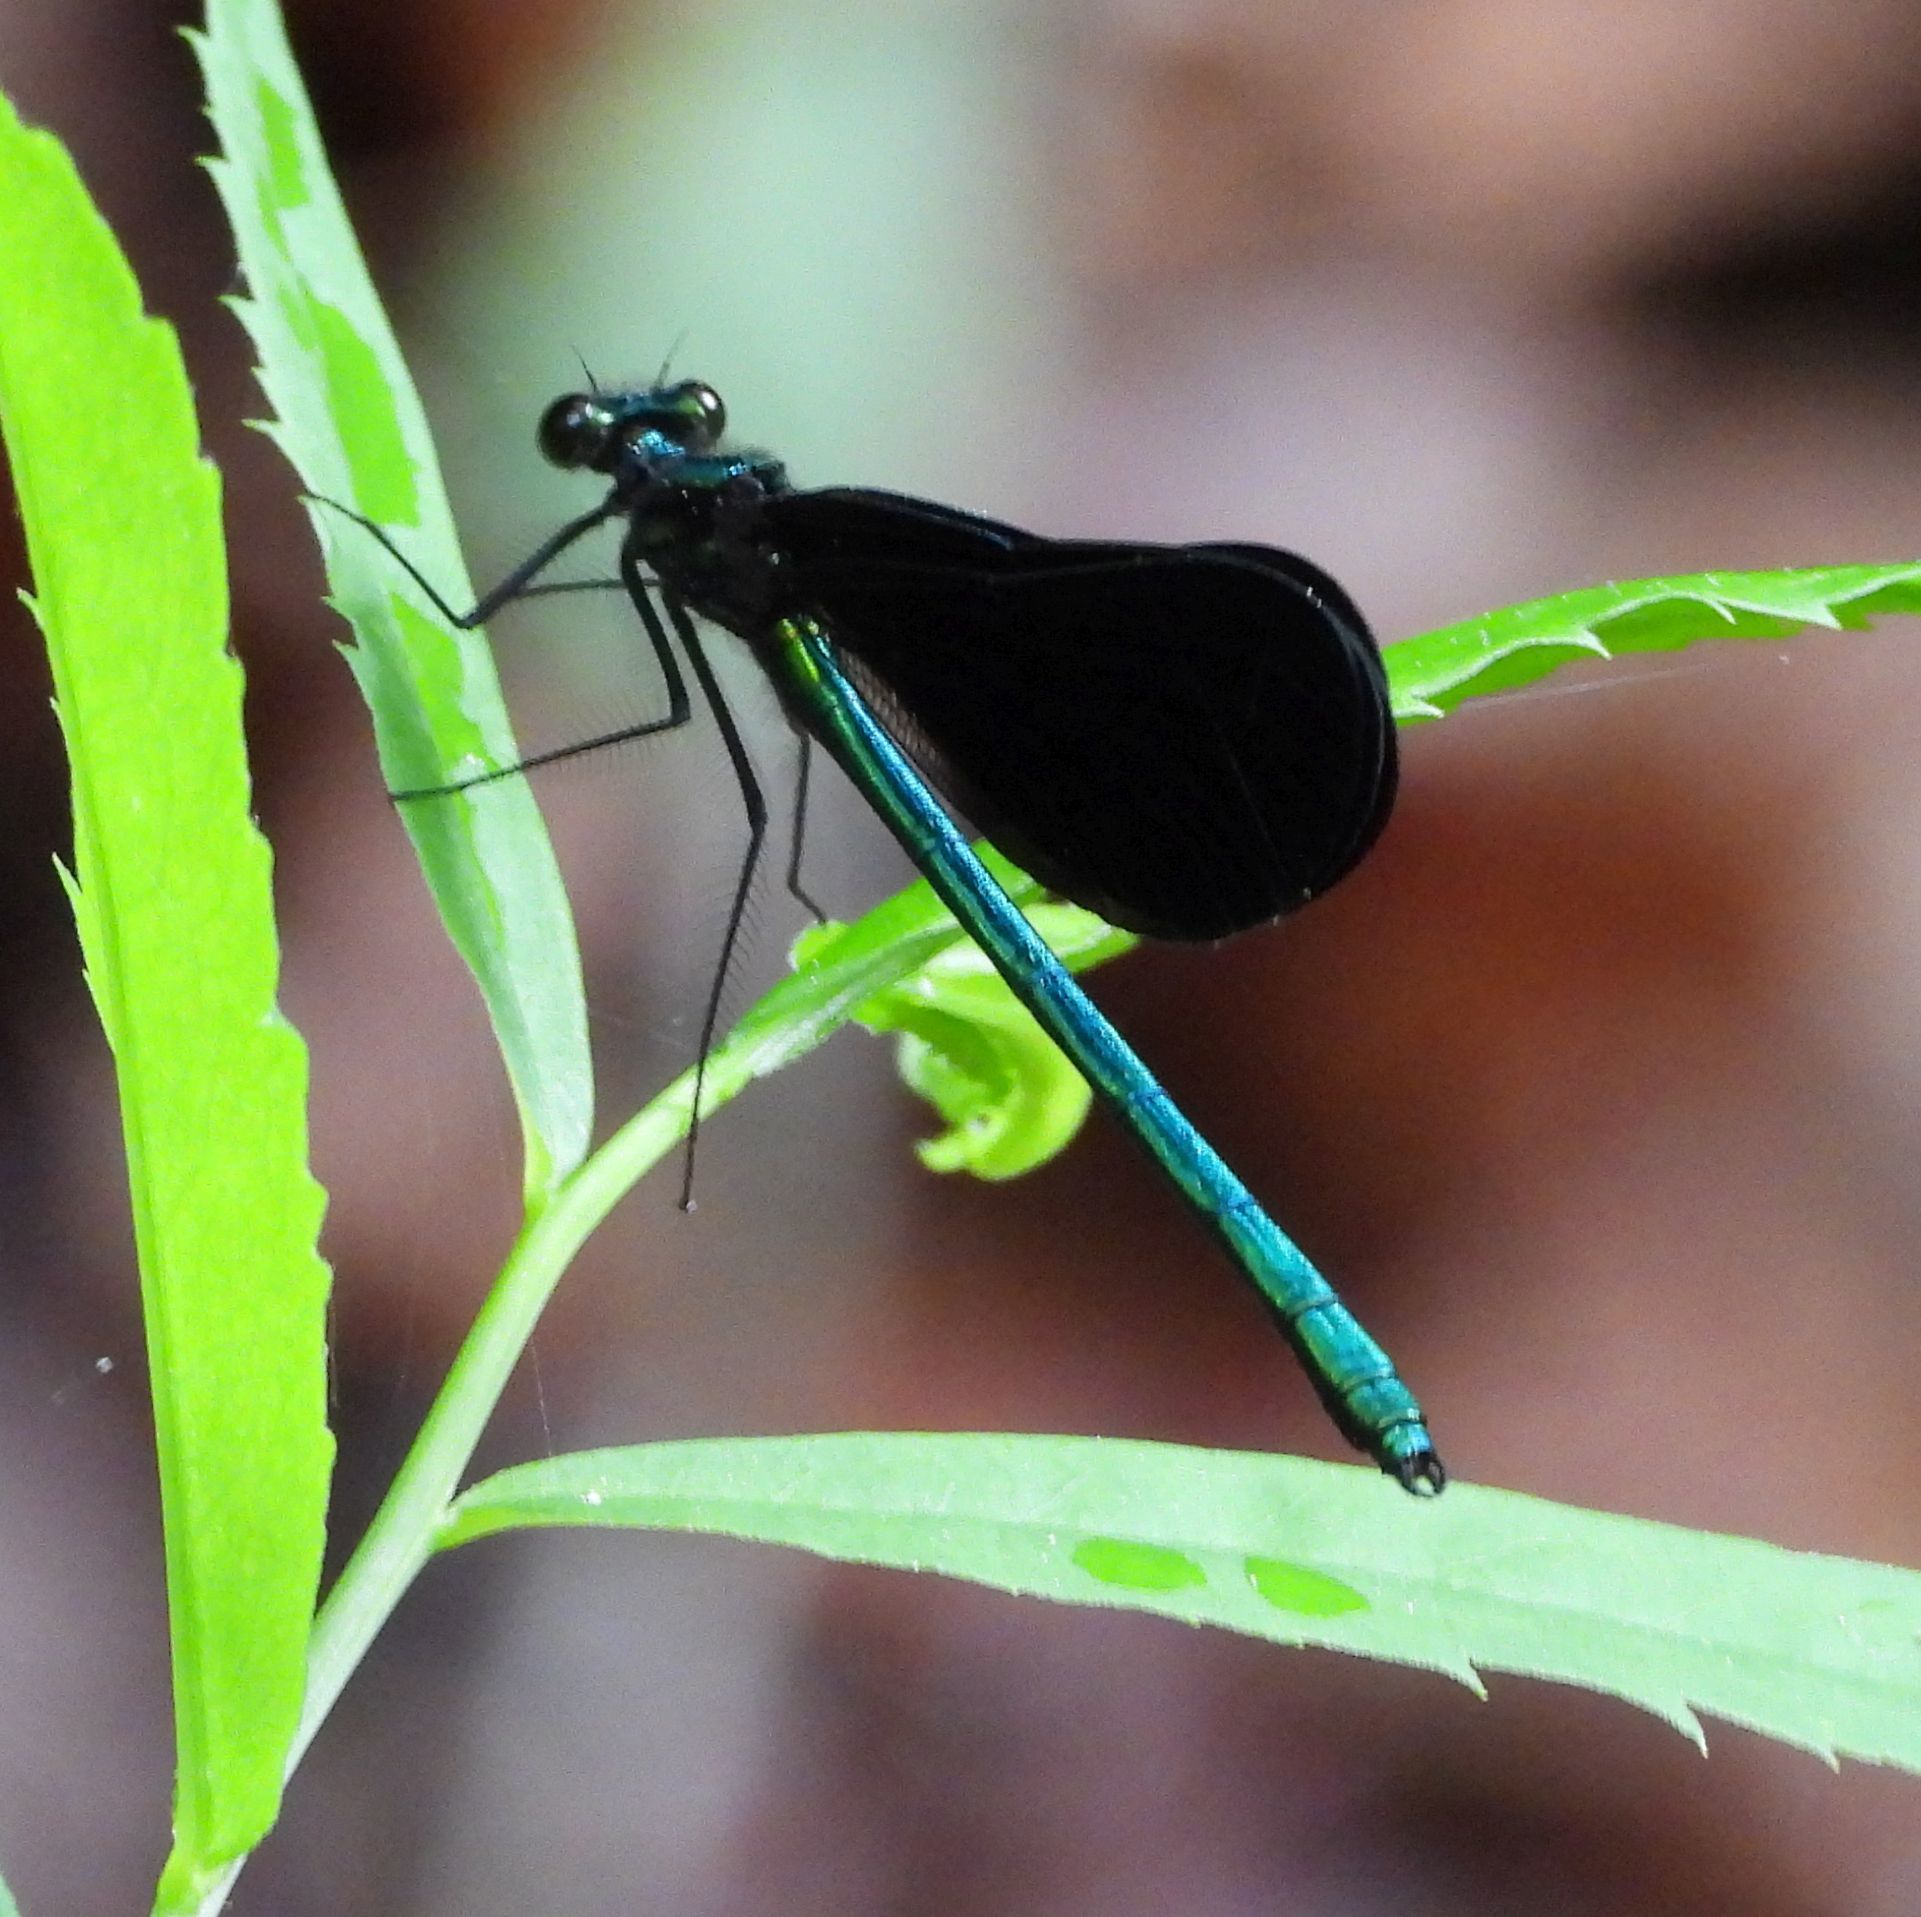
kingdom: Animalia
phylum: Arthropoda
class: Insecta
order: Odonata
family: Calopterygidae
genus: Calopteryx
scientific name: Calopteryx maculata
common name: Ebony jewelwing
